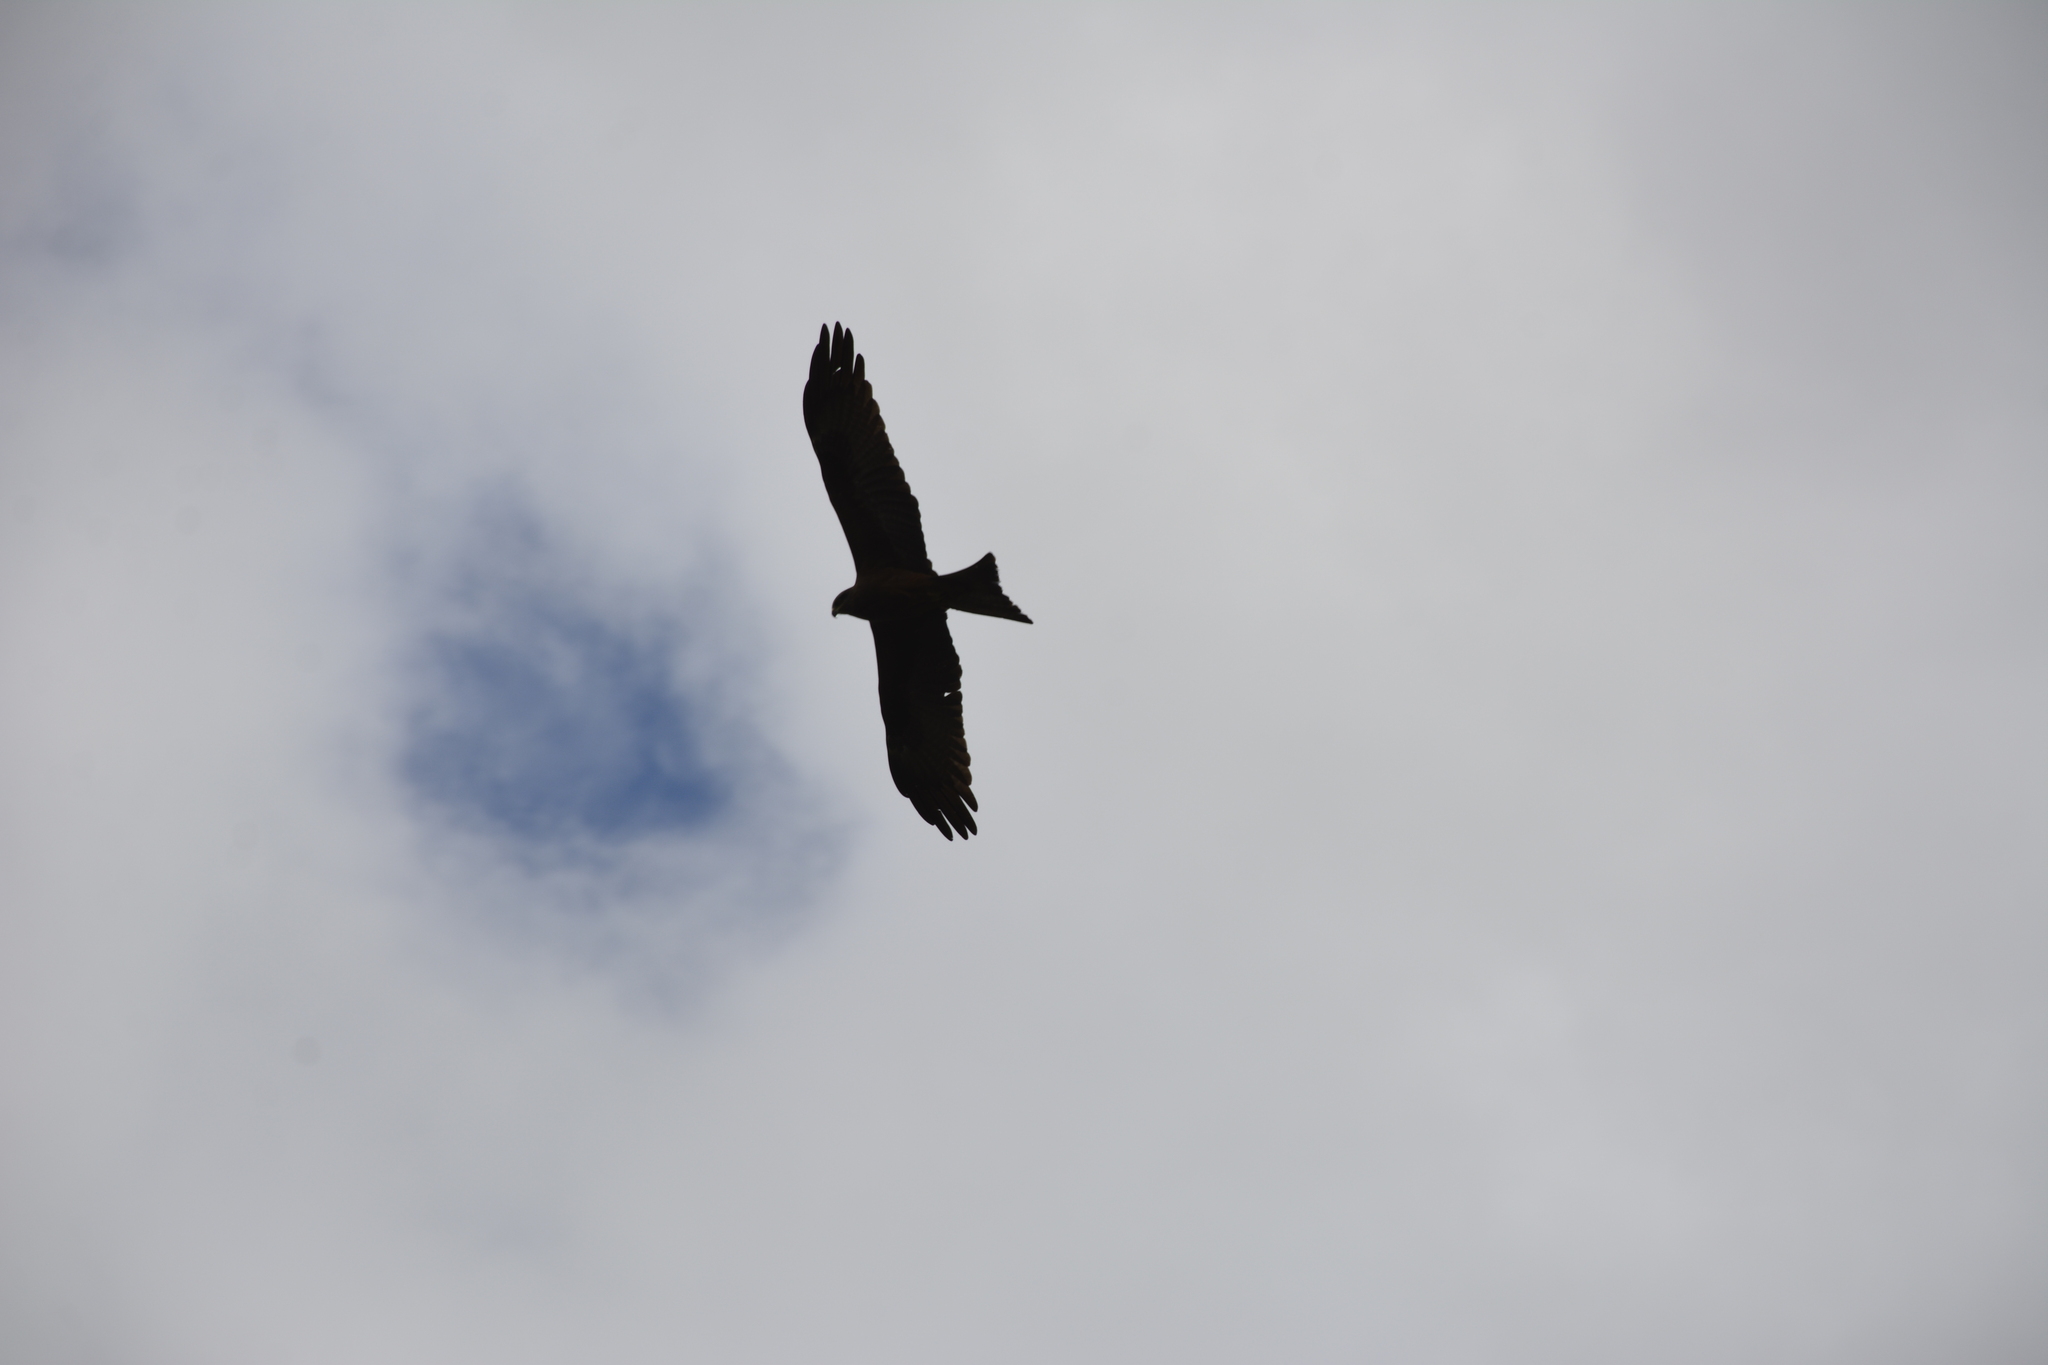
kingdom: Animalia
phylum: Chordata
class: Aves
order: Accipitriformes
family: Accipitridae
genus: Milvus
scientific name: Milvus migrans
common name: Black kite
